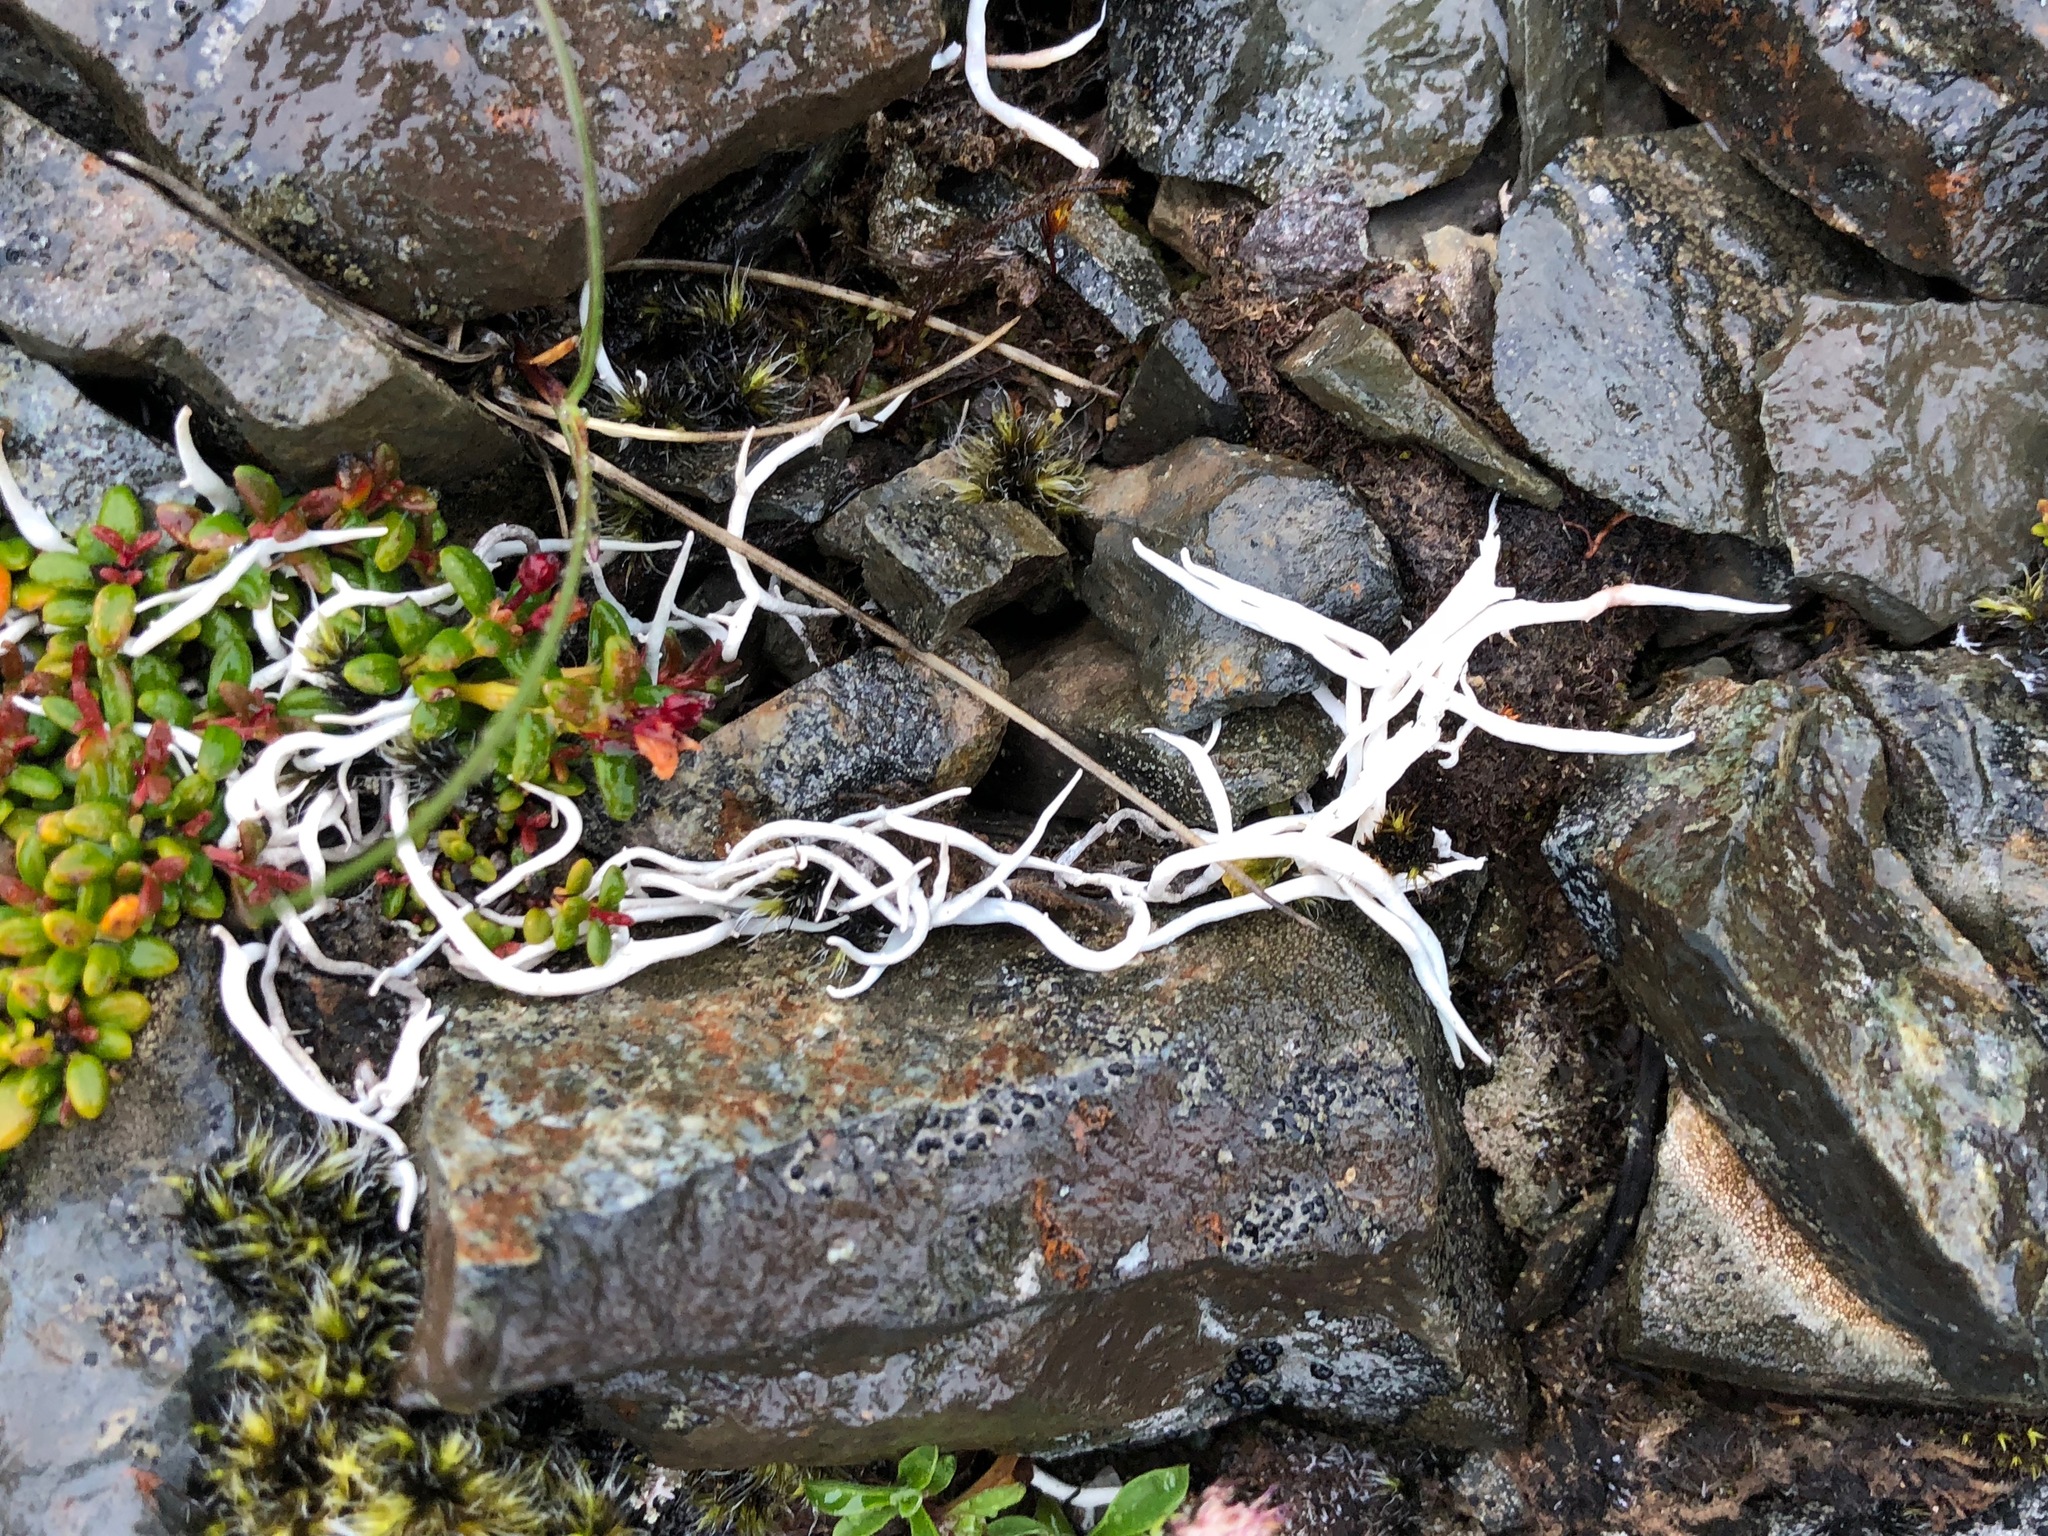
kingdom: Fungi
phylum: Ascomycota
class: Lecanoromycetes
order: Pertusariales
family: Icmadophilaceae
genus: Thamnolia
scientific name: Thamnolia vermicularis
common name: Whiteworm lichen
